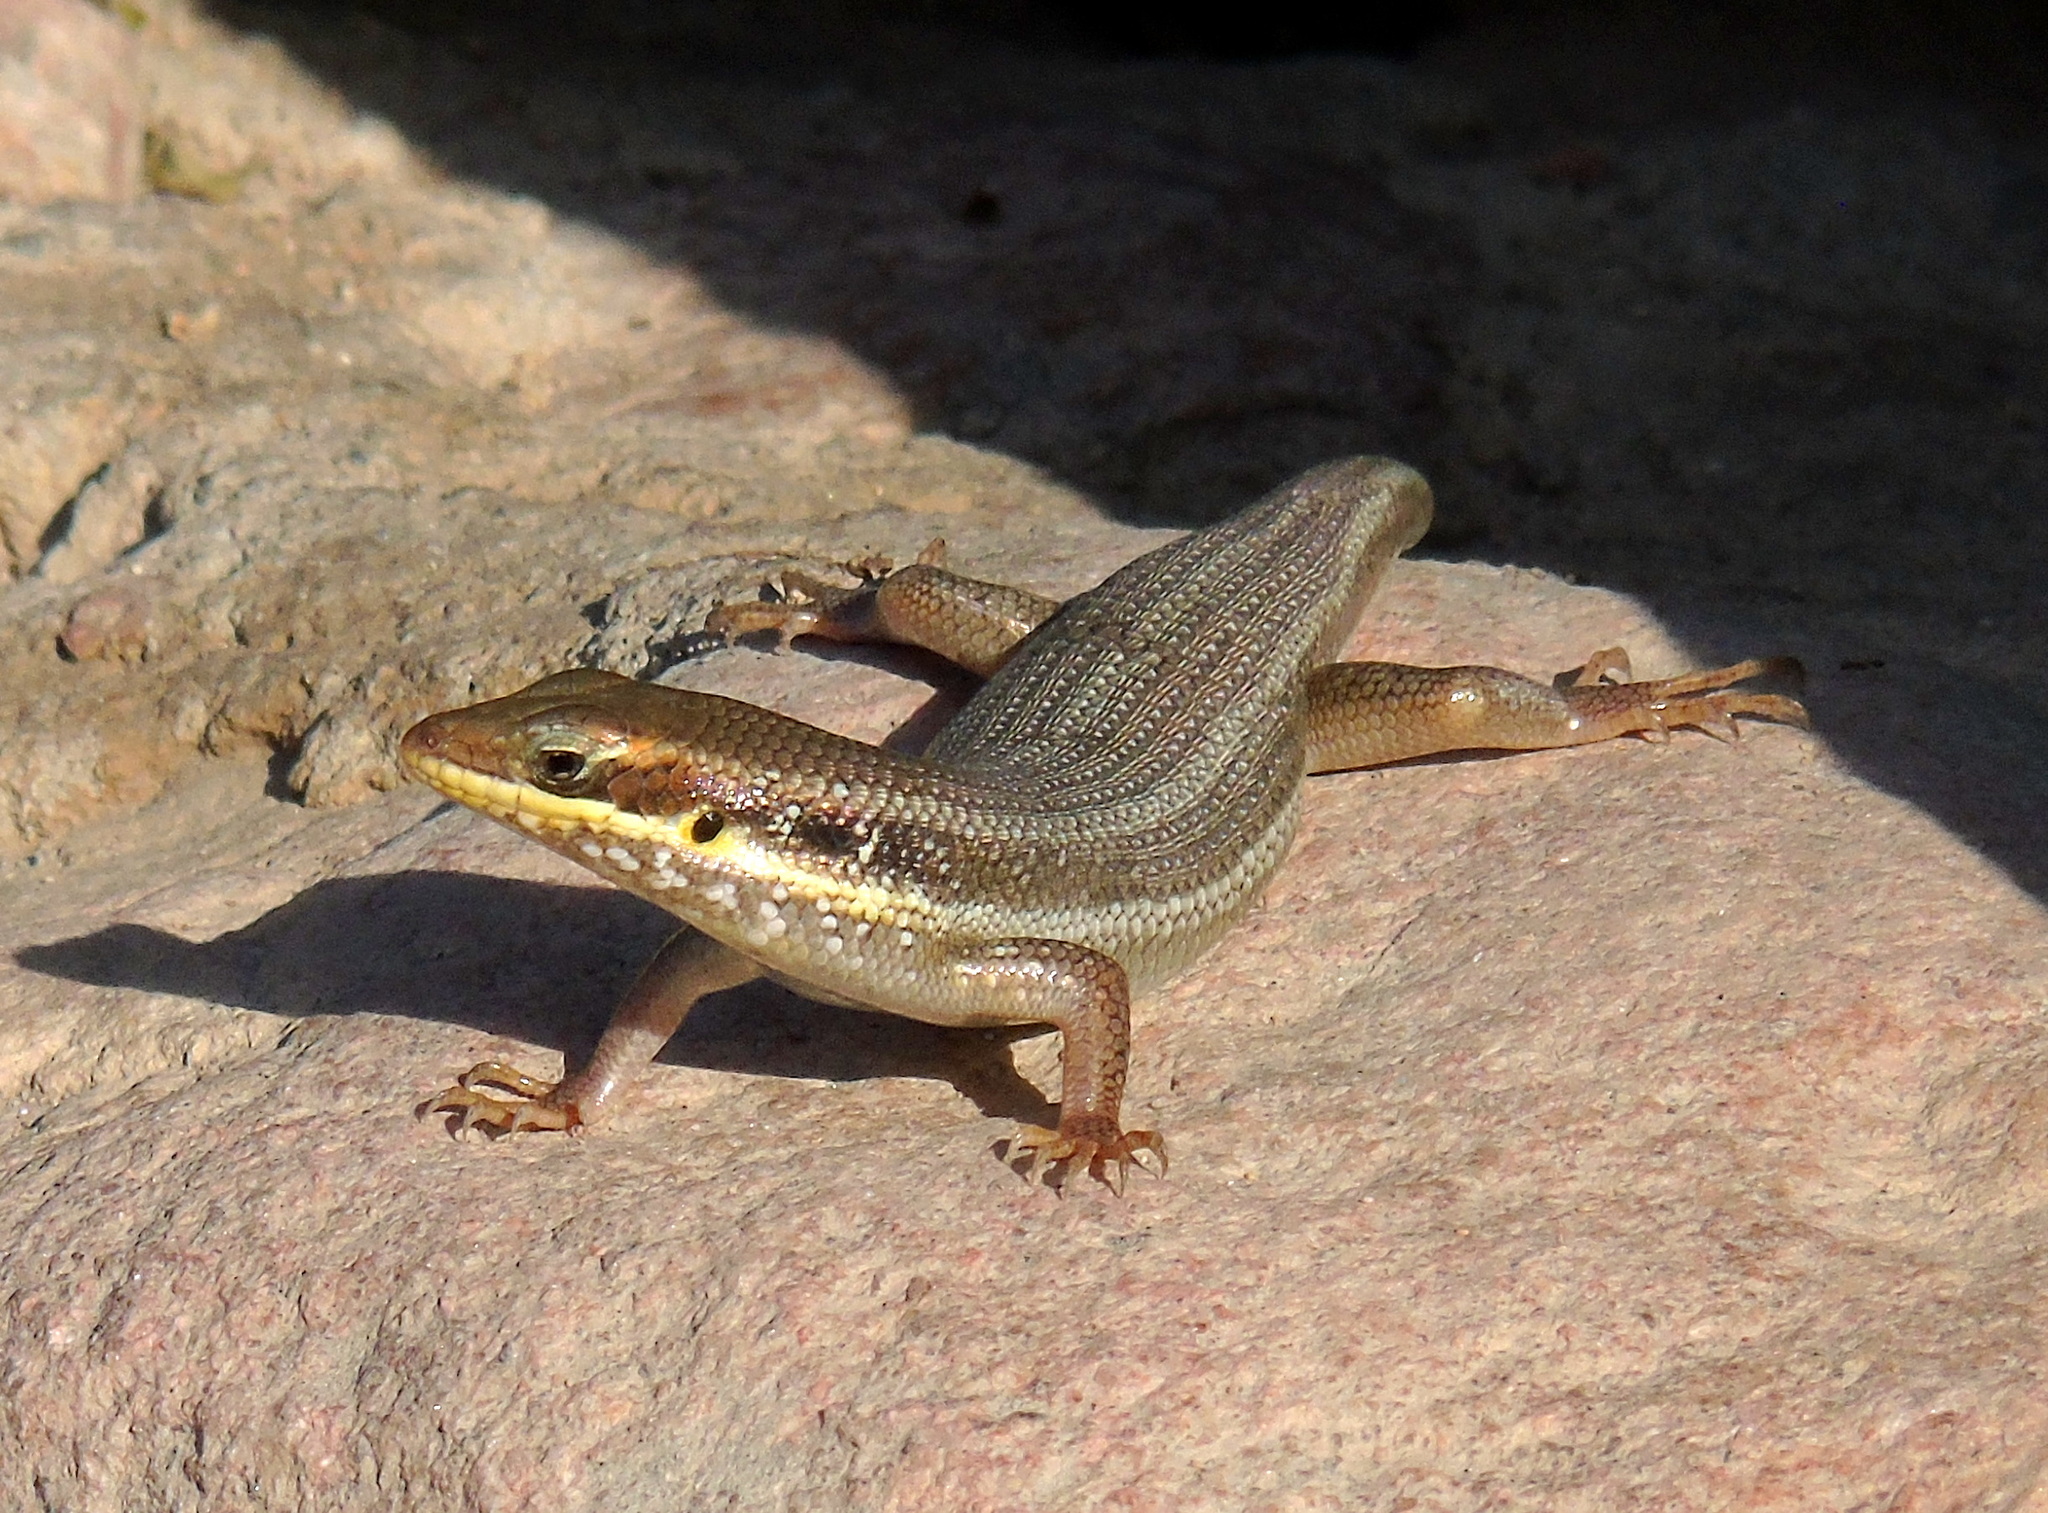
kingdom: Animalia
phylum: Chordata
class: Squamata
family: Scincidae
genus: Trachylepis
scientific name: Trachylepis quinquetaeniata
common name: African five-lined skink
